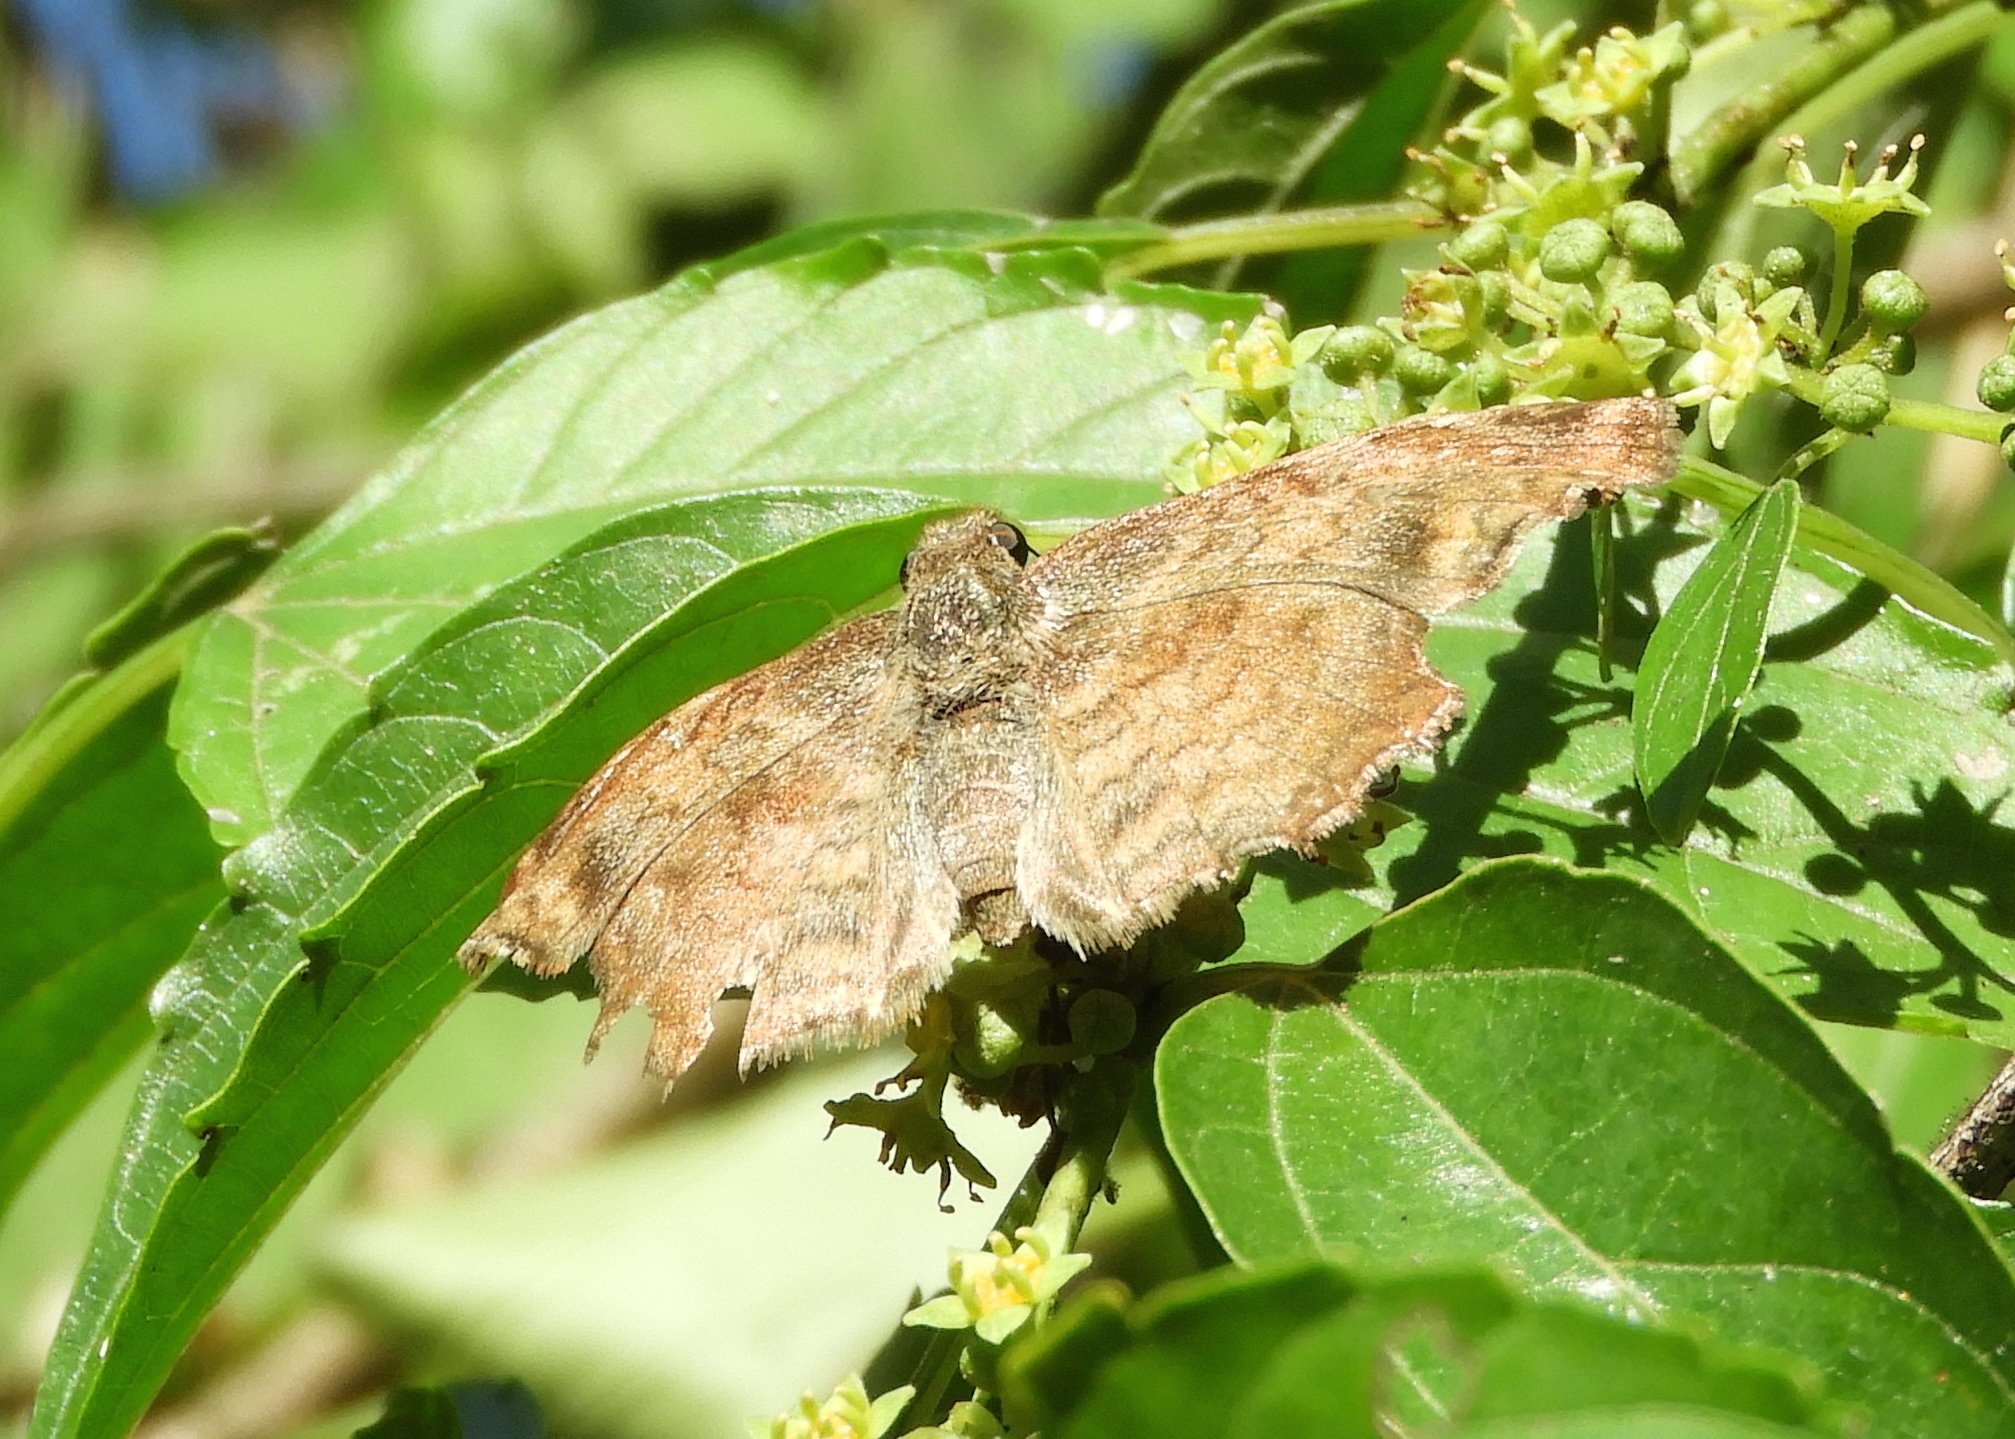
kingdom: Animalia
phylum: Arthropoda
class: Insecta
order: Lepidoptera
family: Hesperiidae
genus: Antigonus
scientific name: Antigonus erosus
